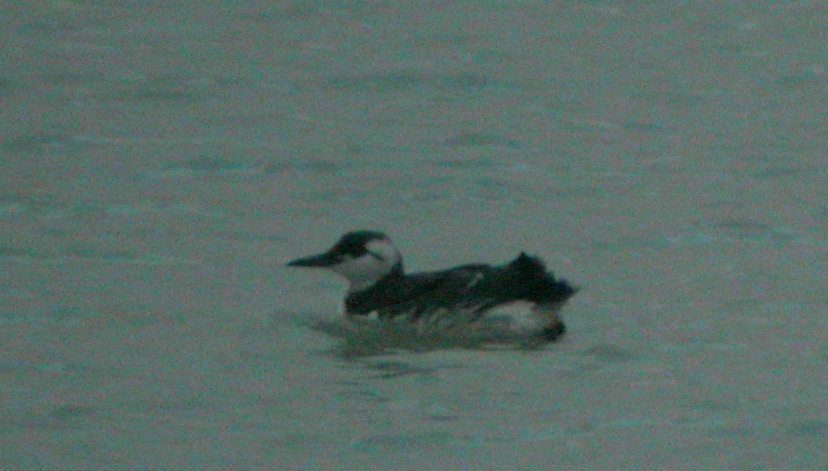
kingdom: Animalia
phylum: Chordata
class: Aves
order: Charadriiformes
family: Alcidae
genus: Uria
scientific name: Uria aalge
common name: Common murre
